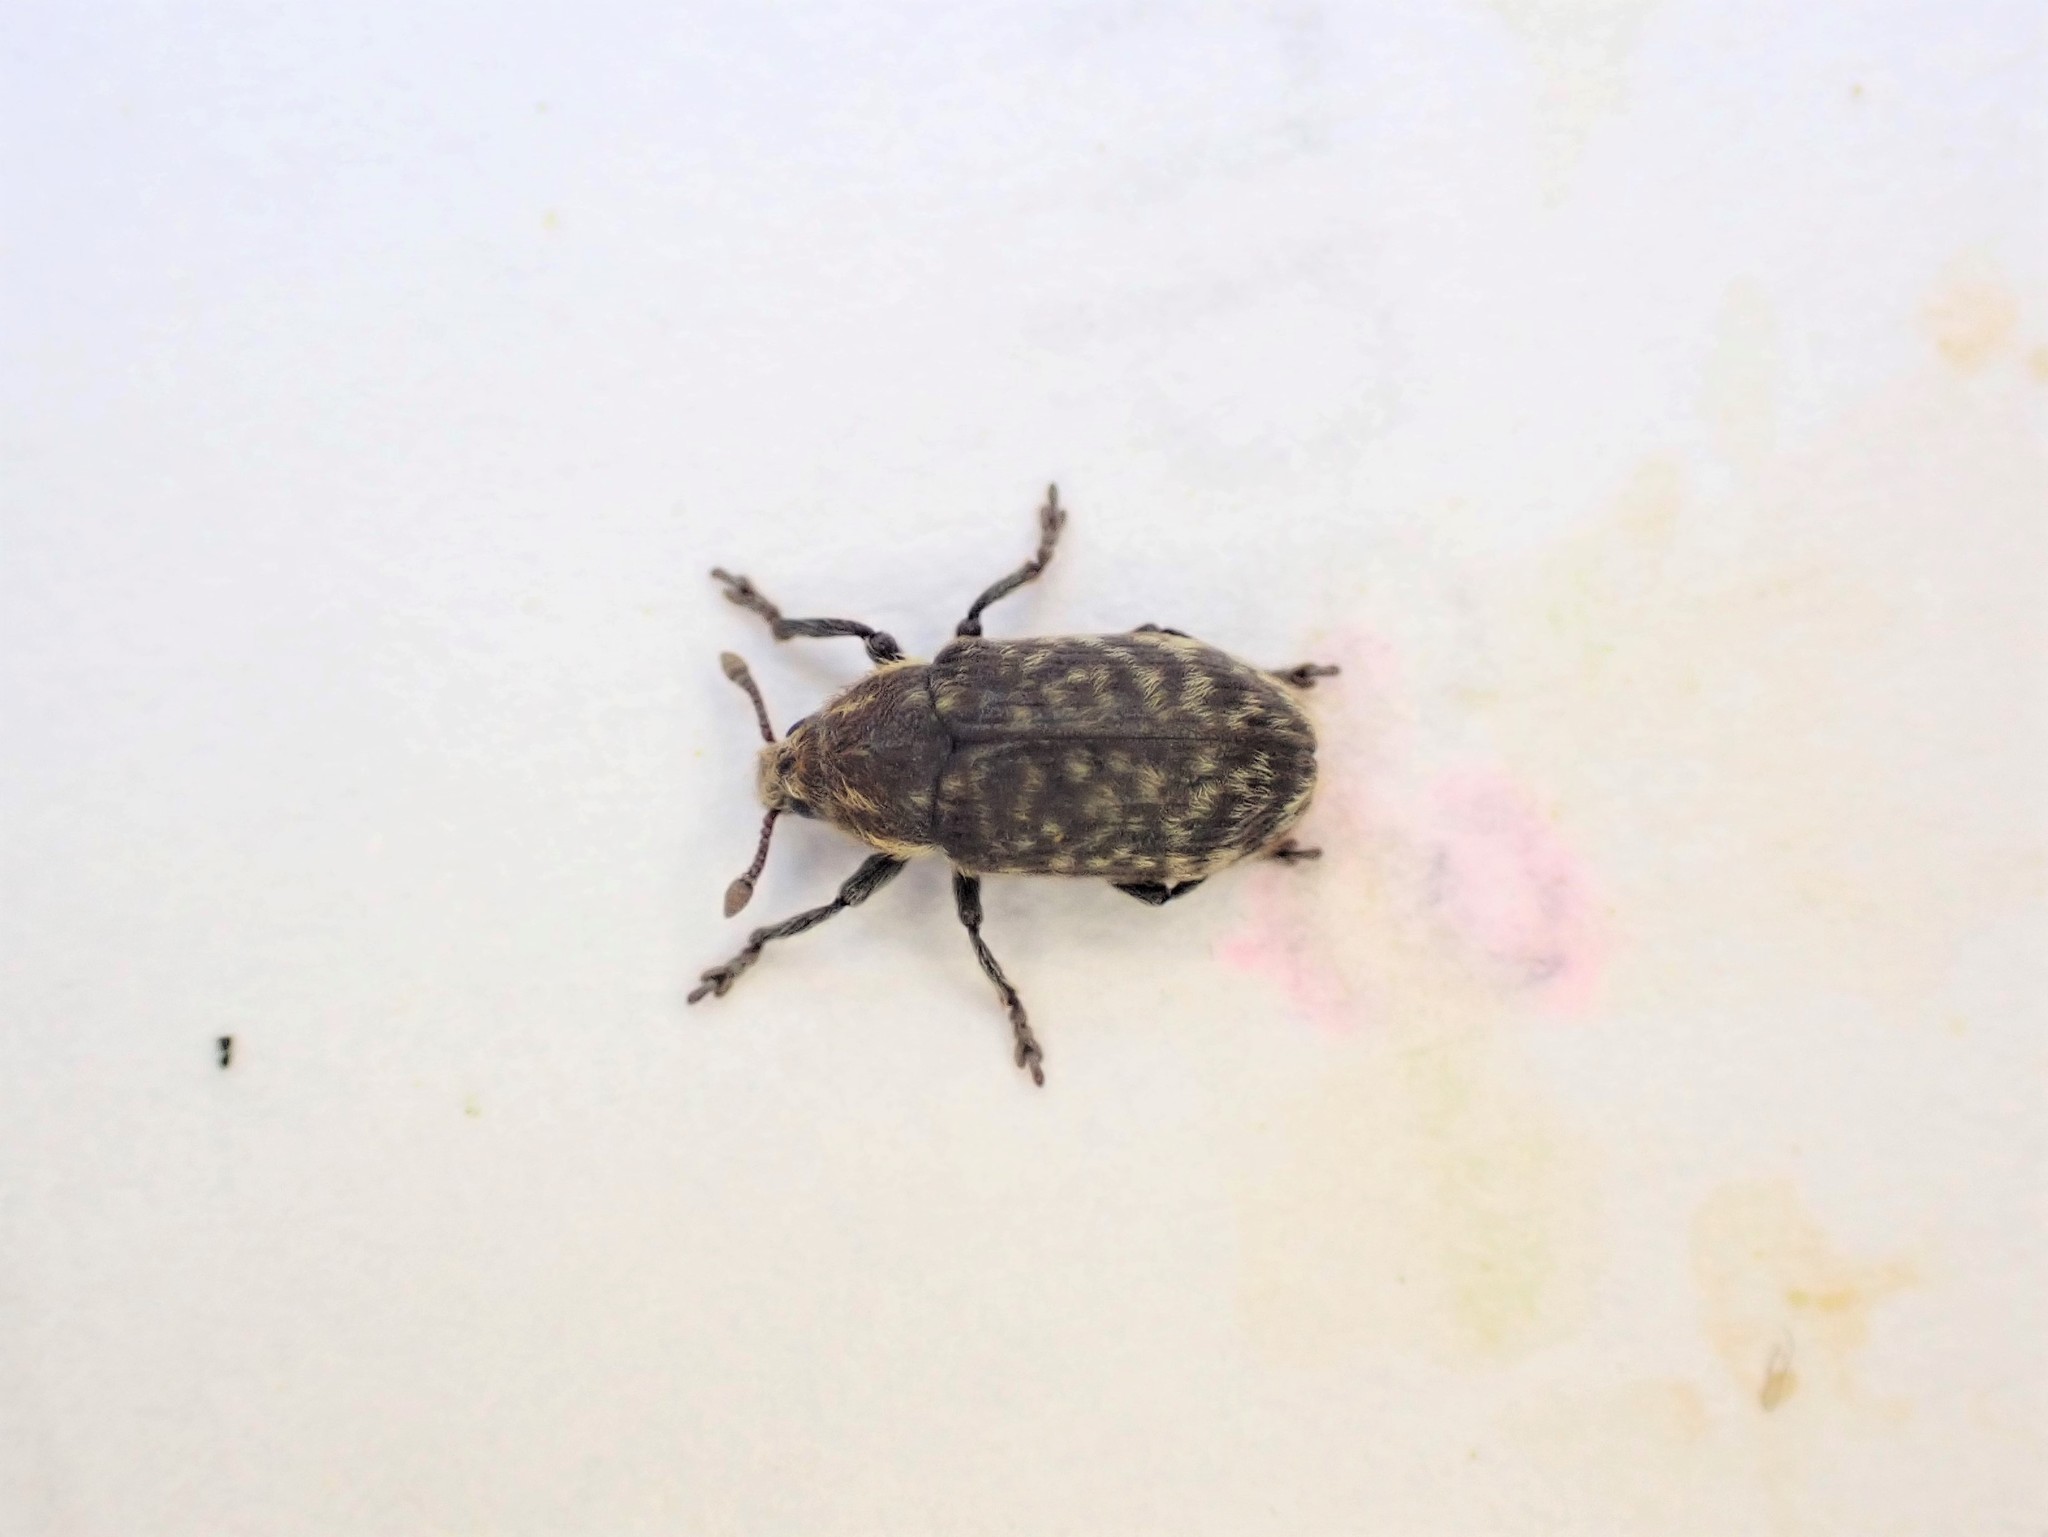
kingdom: Animalia
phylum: Arthropoda
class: Insecta
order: Coleoptera
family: Curculionidae
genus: Rhinocyllus
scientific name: Rhinocyllus conicus
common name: Weevil
